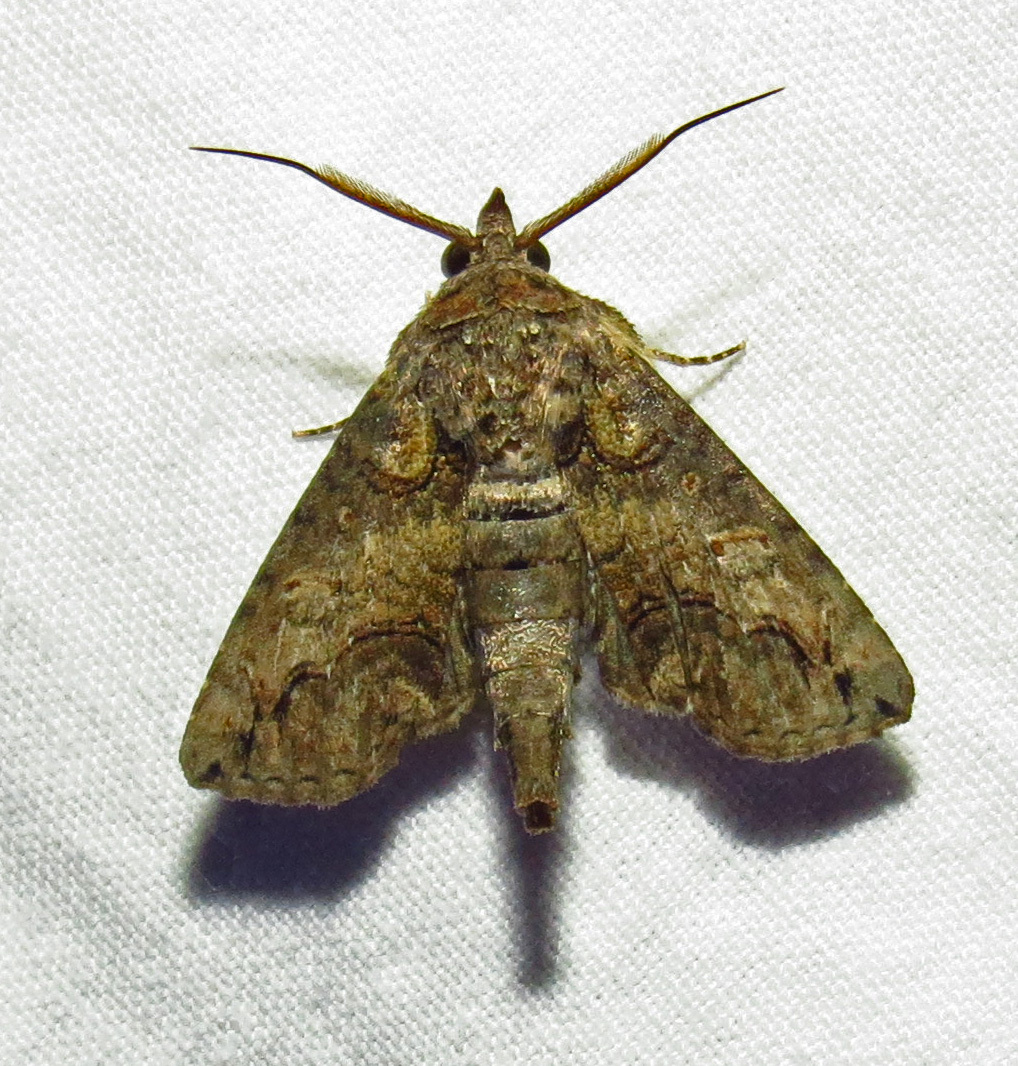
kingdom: Animalia
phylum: Arthropoda
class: Insecta
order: Lepidoptera
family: Euteliidae
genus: Paectes
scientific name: Paectes abrostoloides
